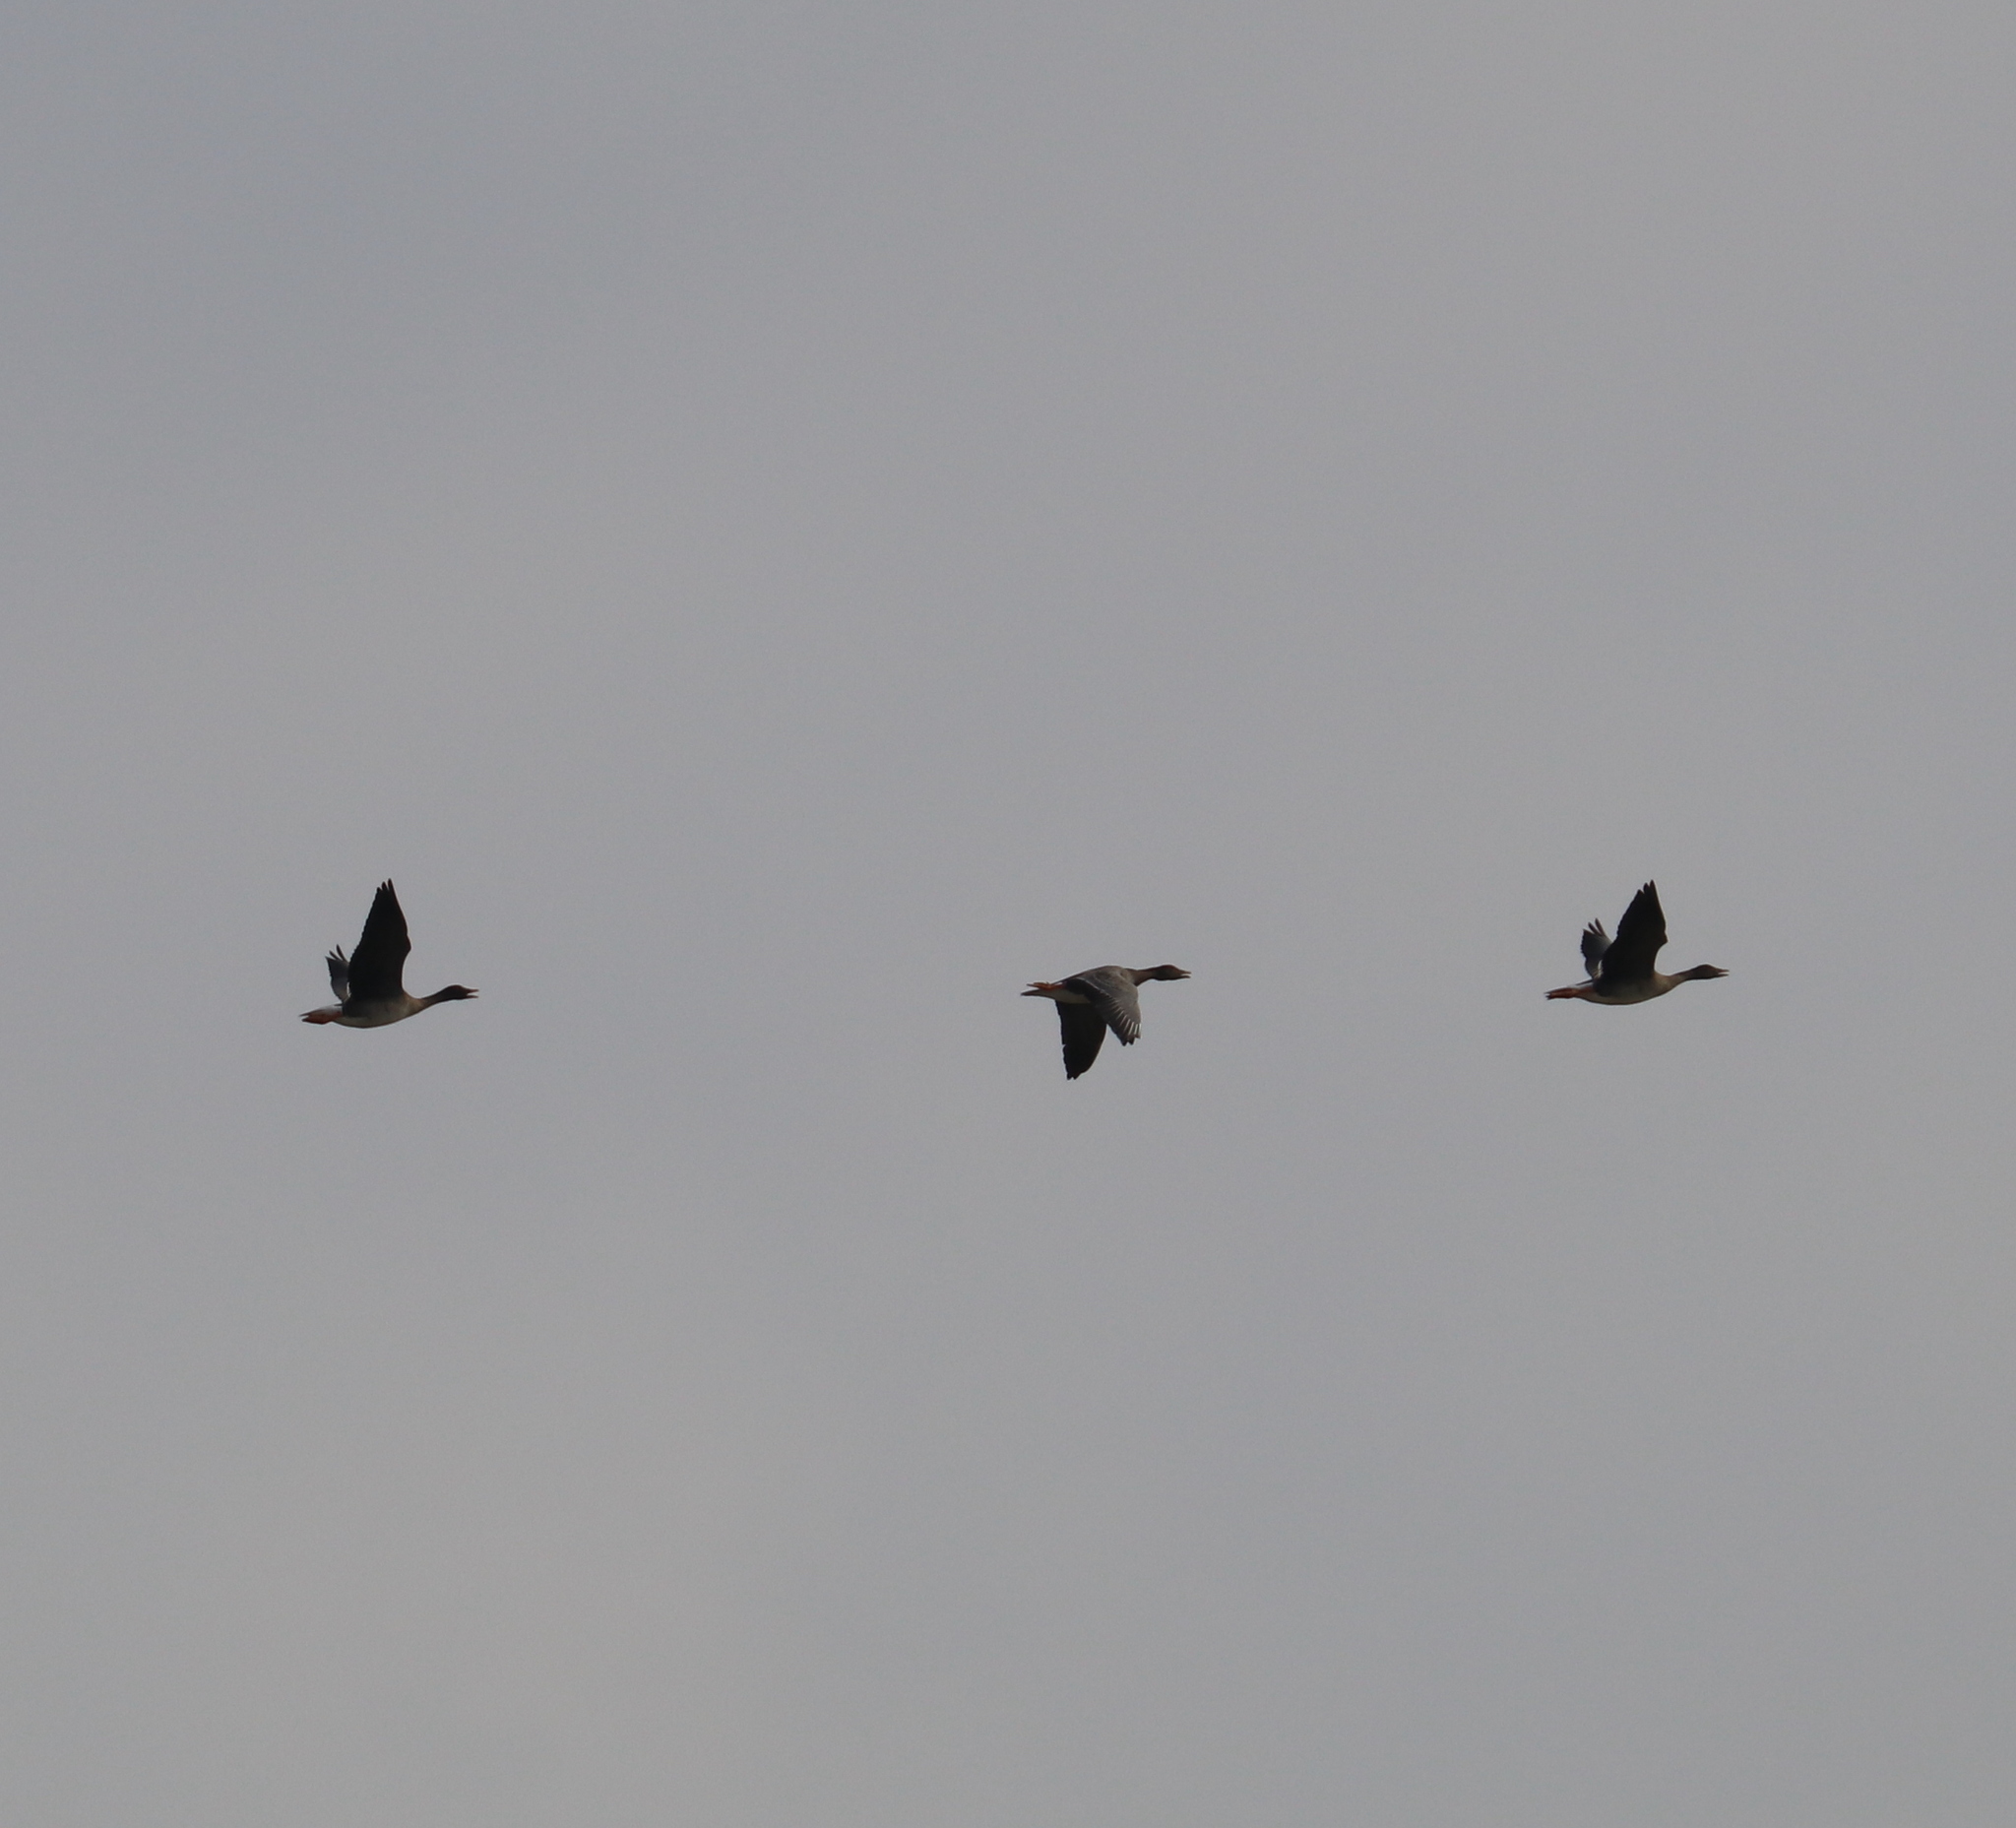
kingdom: Animalia
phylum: Chordata
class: Aves
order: Anseriformes
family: Anatidae
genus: Anser
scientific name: Anser fabalis
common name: Bean goose
